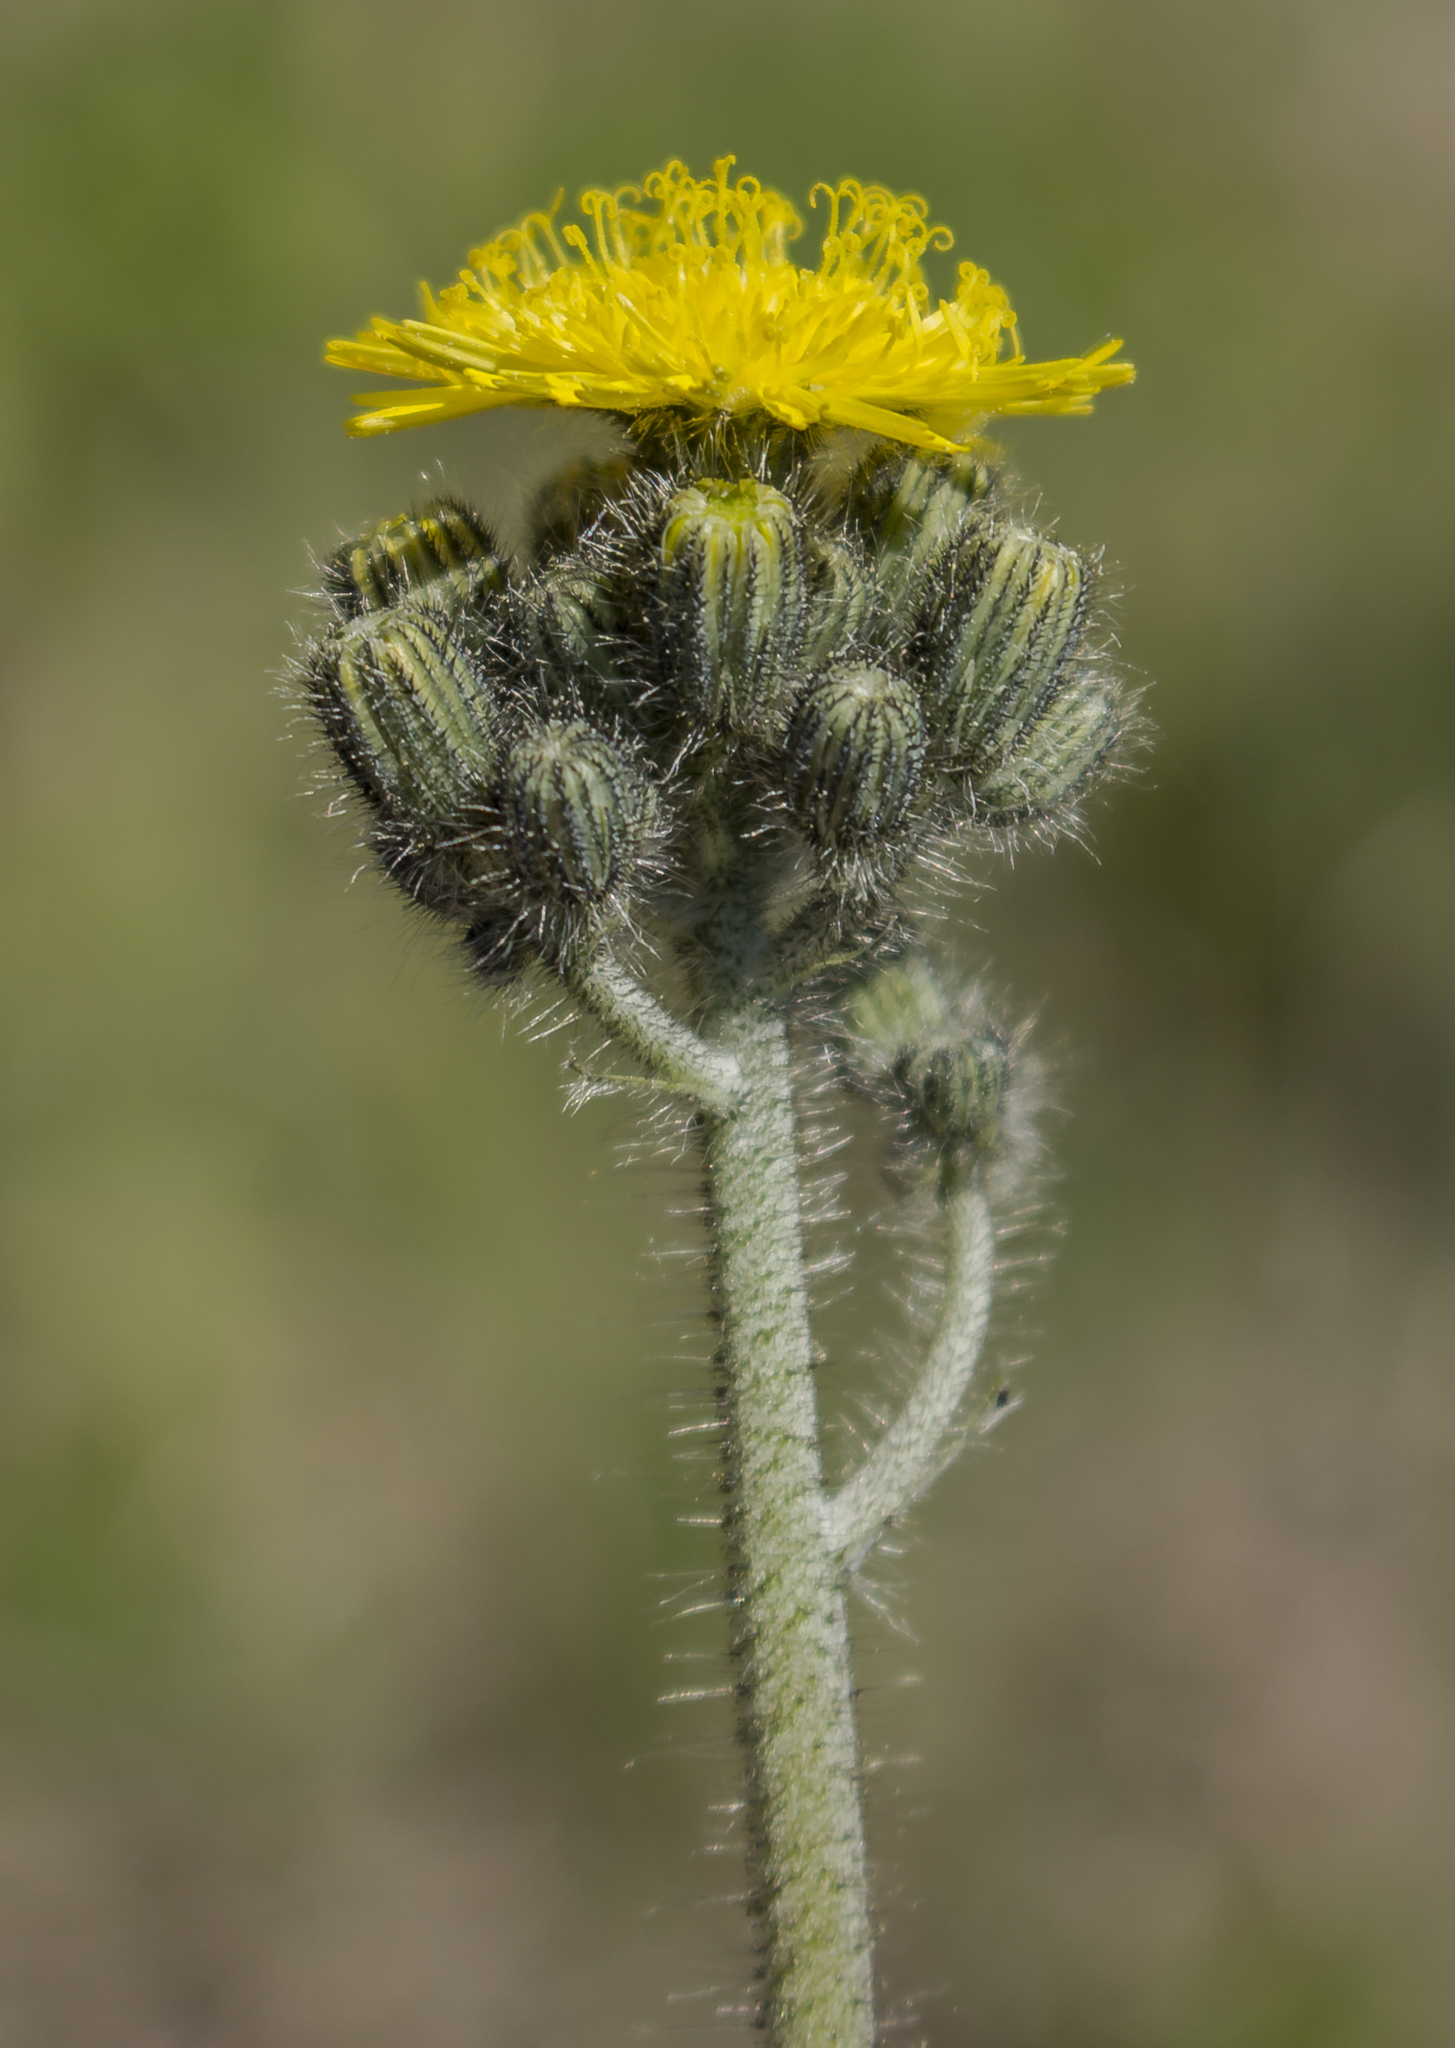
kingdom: Plantae
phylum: Tracheophyta
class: Magnoliopsida
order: Asterales
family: Asteraceae
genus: Pilosella
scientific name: Pilosella caespitosa
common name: Yellow fox-and-cubs
